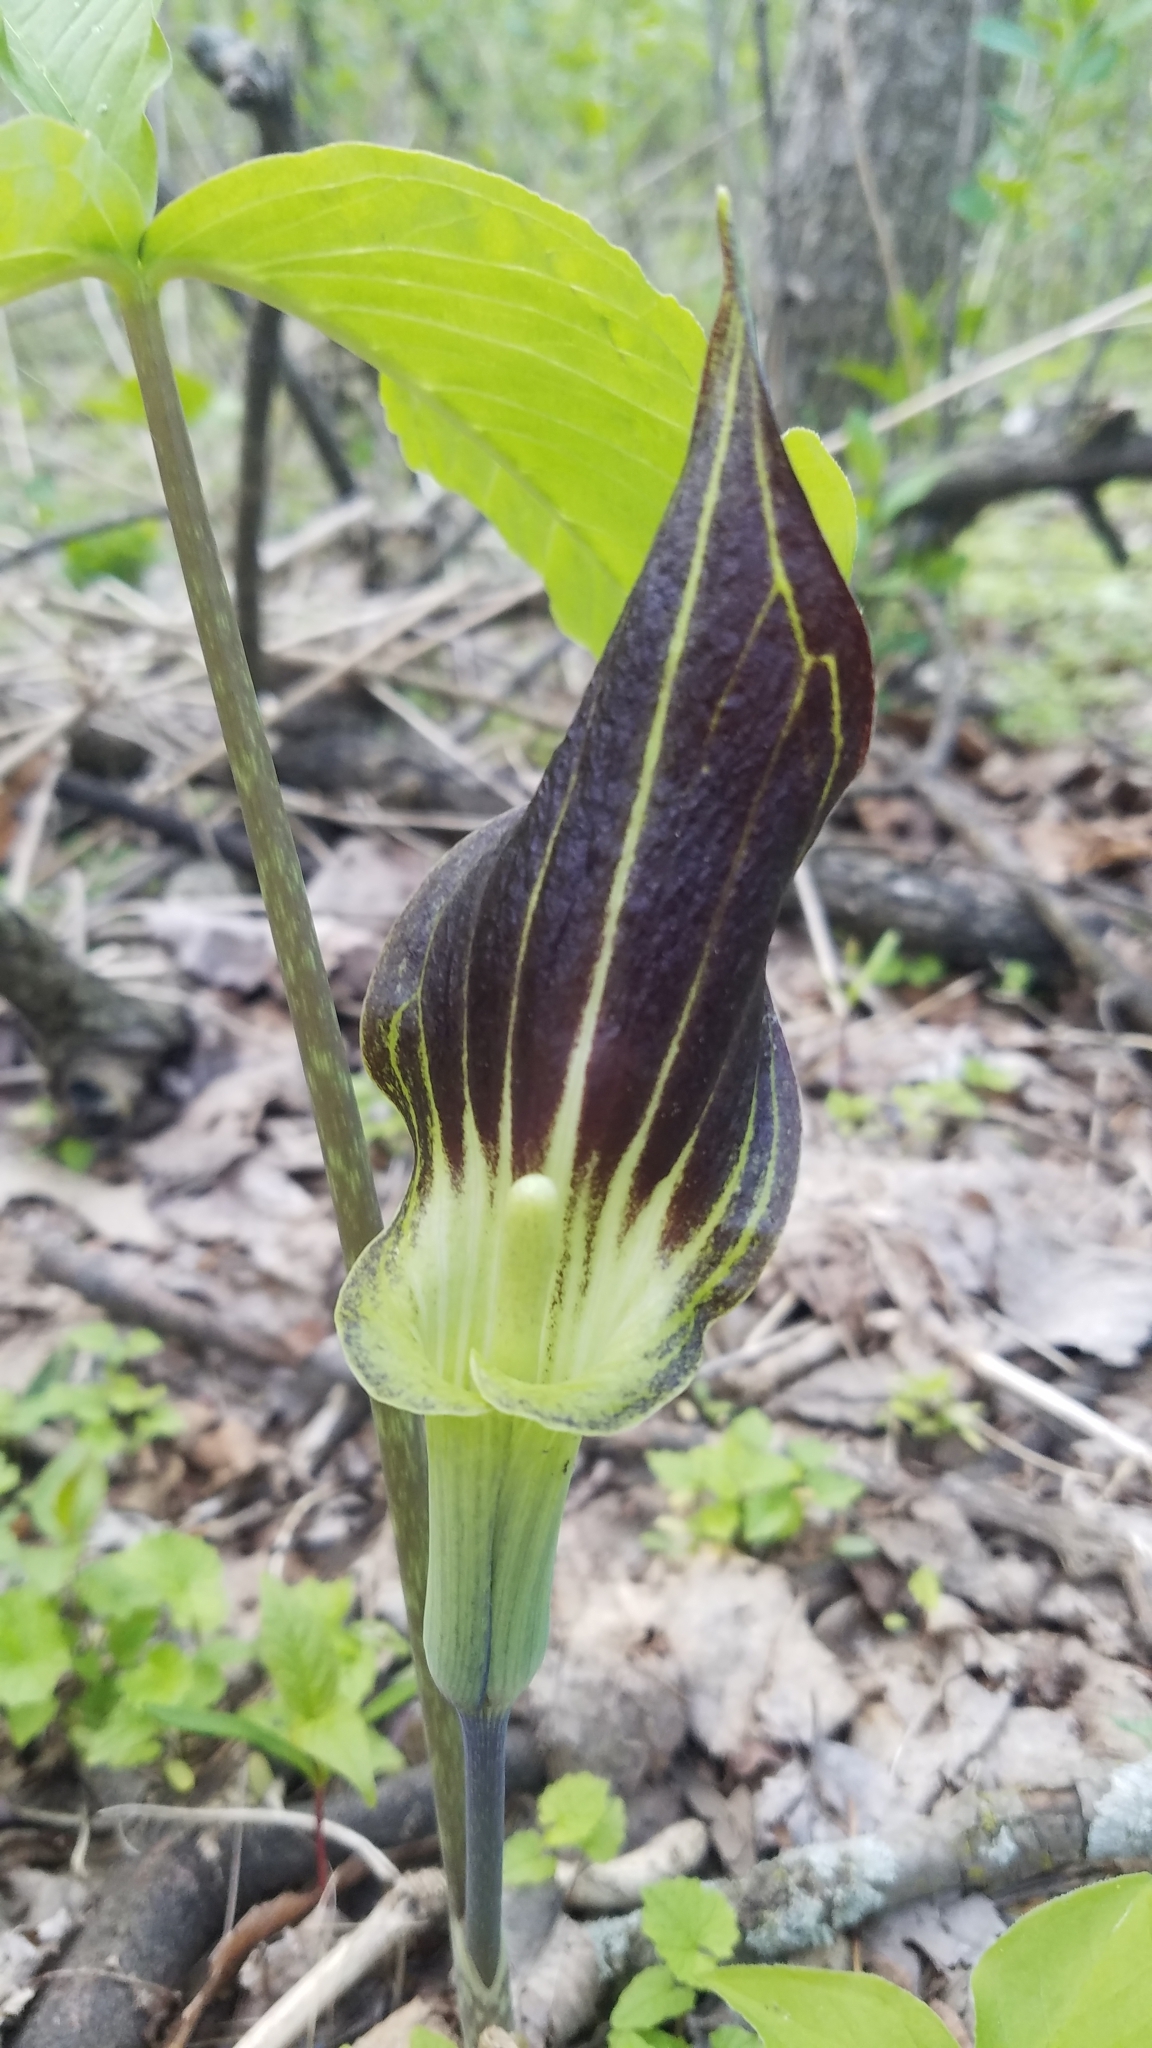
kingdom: Plantae
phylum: Tracheophyta
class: Liliopsida
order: Alismatales
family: Araceae
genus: Arisaema
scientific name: Arisaema triphyllum
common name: Jack-in-the-pulpit
